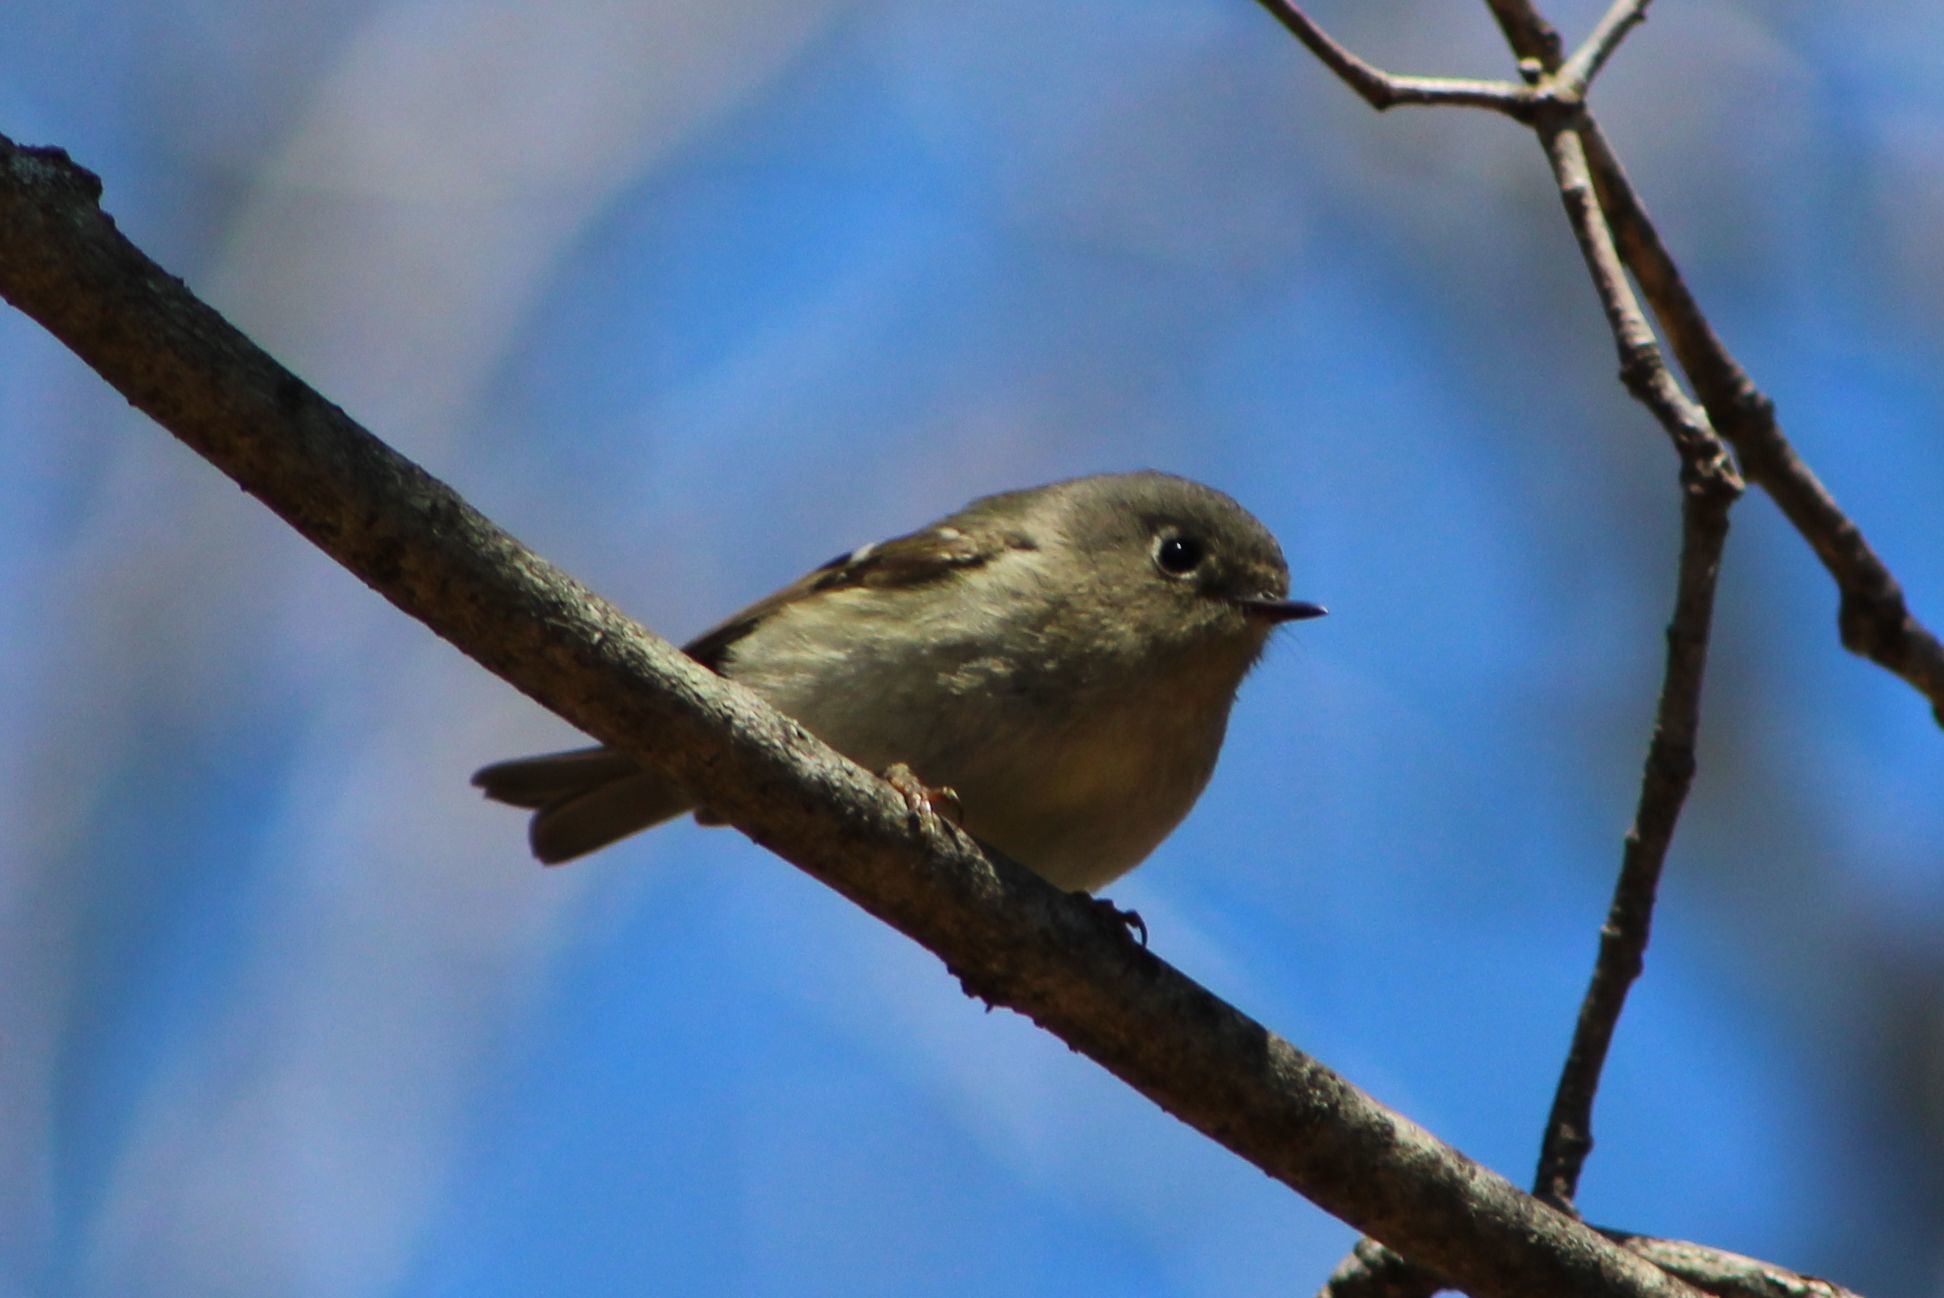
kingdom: Animalia
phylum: Chordata
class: Aves
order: Passeriformes
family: Regulidae
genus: Regulus
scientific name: Regulus calendula
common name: Ruby-crowned kinglet
